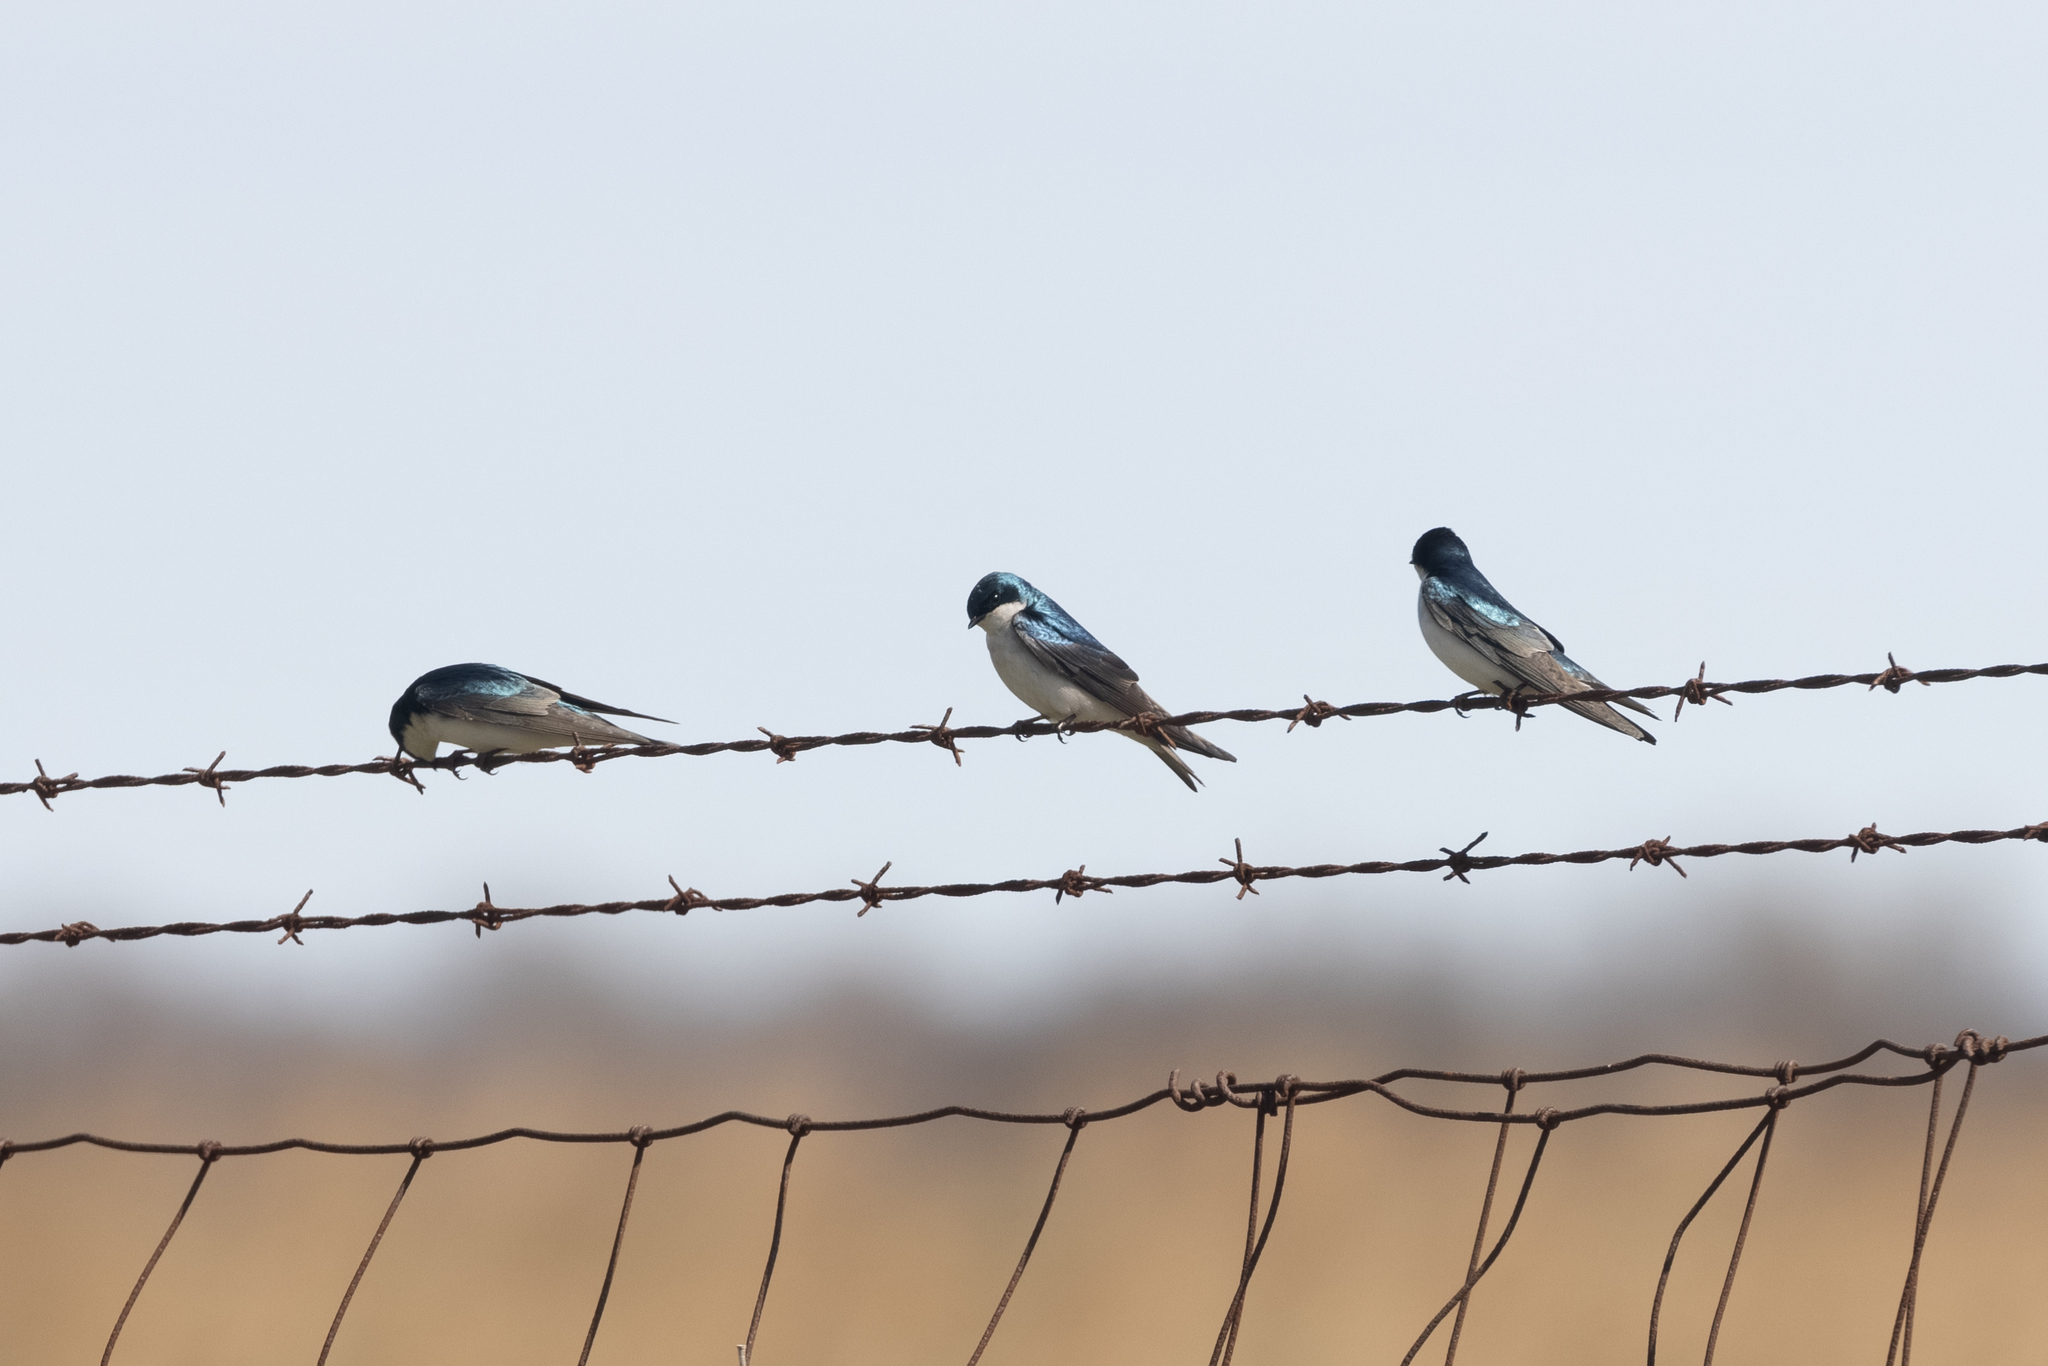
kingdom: Animalia
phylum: Chordata
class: Aves
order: Passeriformes
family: Hirundinidae
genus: Tachycineta
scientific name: Tachycineta bicolor
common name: Tree swallow
